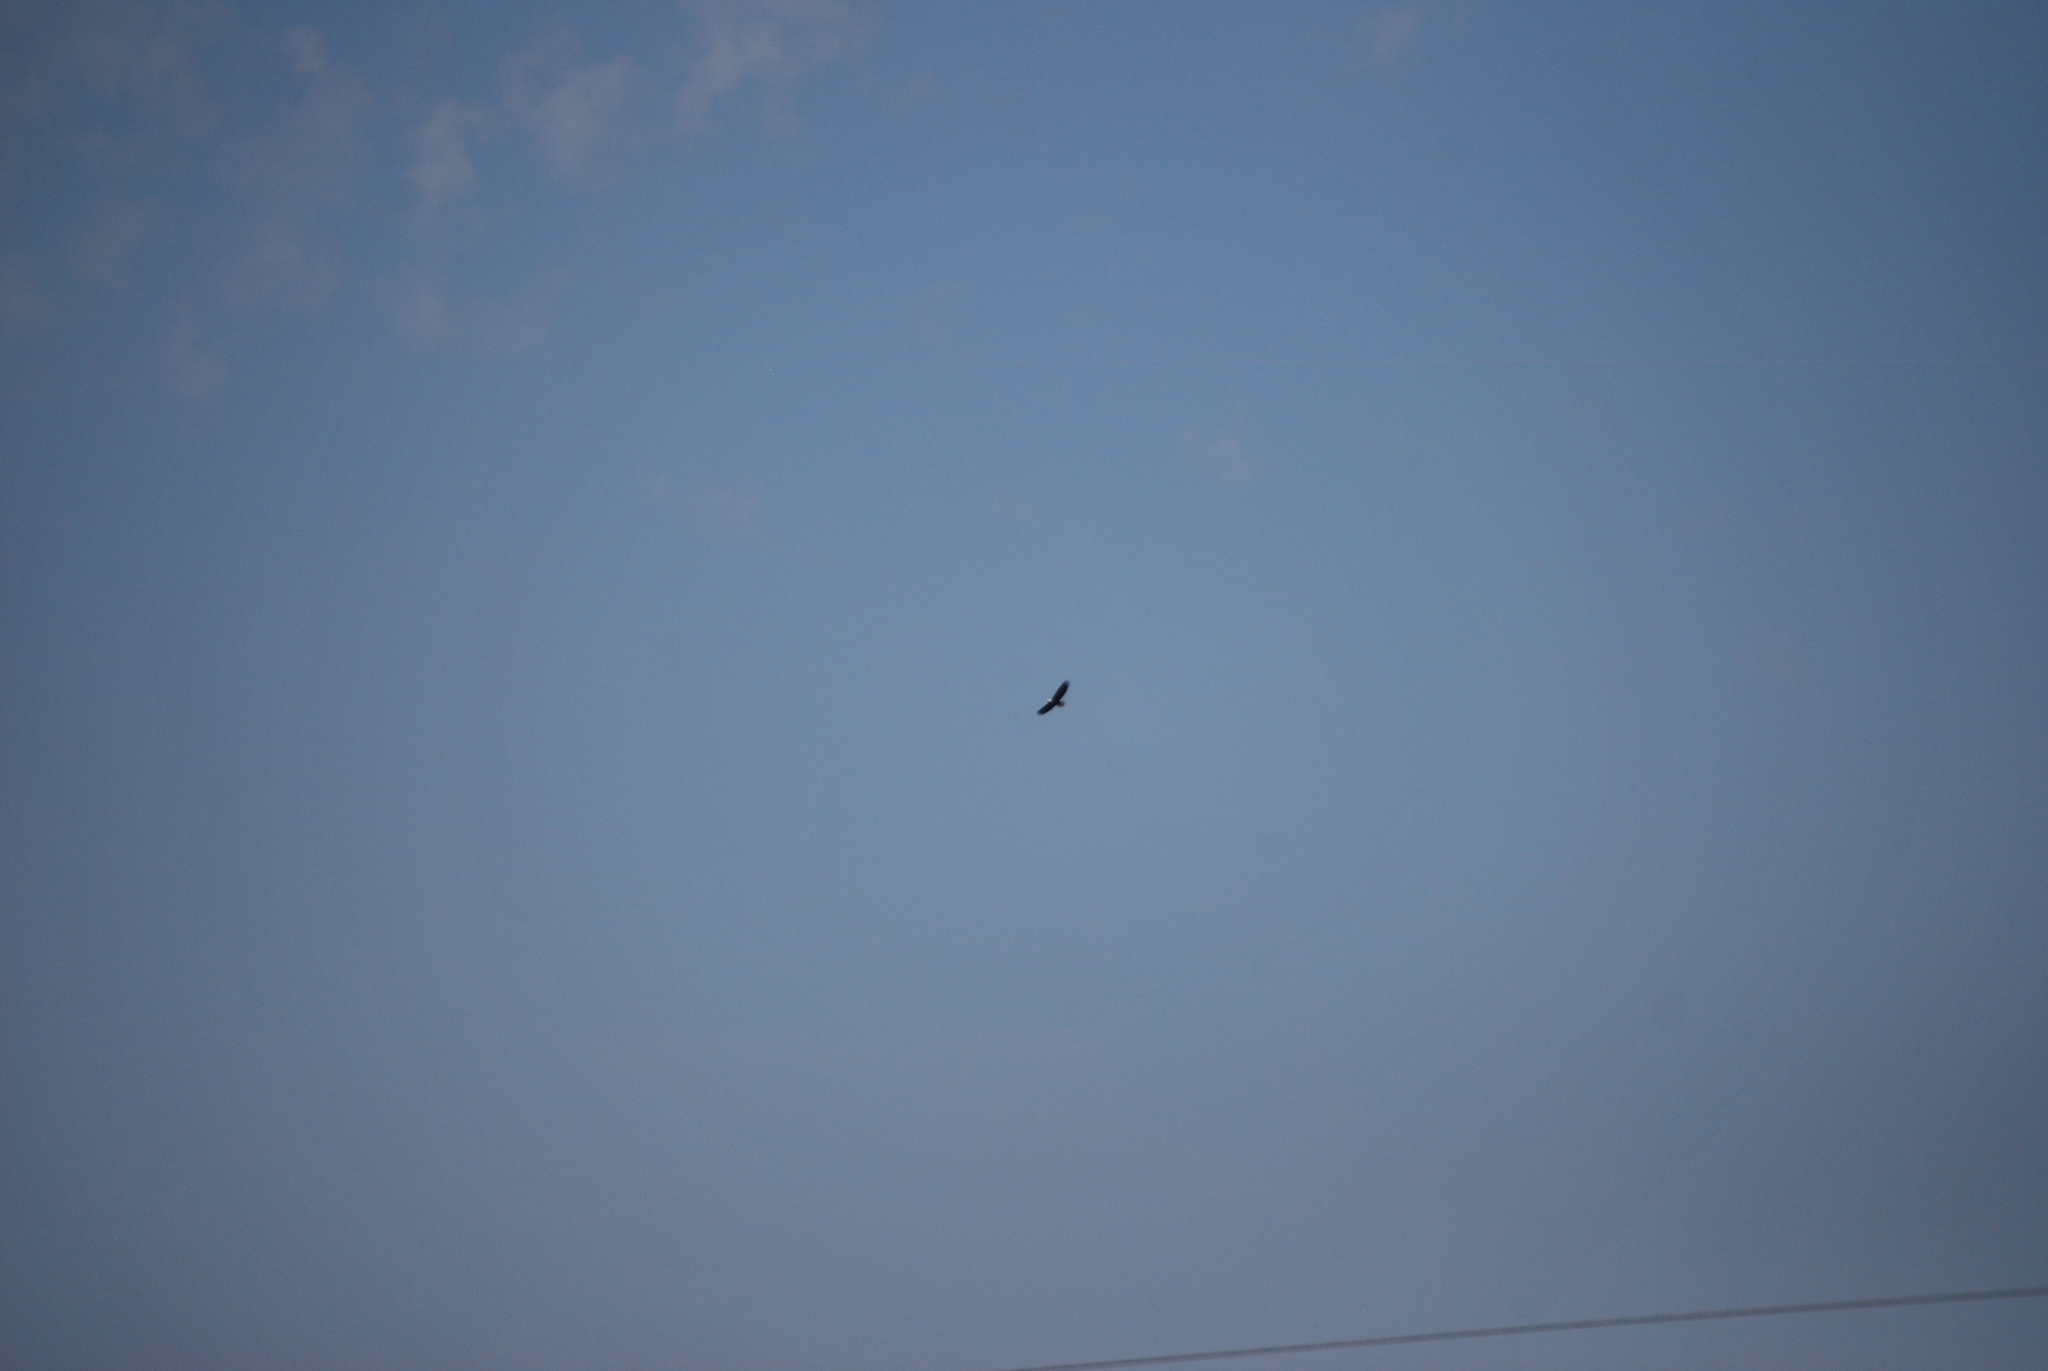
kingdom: Animalia
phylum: Chordata
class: Aves
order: Accipitriformes
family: Accipitridae
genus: Haliaeetus
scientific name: Haliaeetus leucocephalus
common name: Bald eagle
